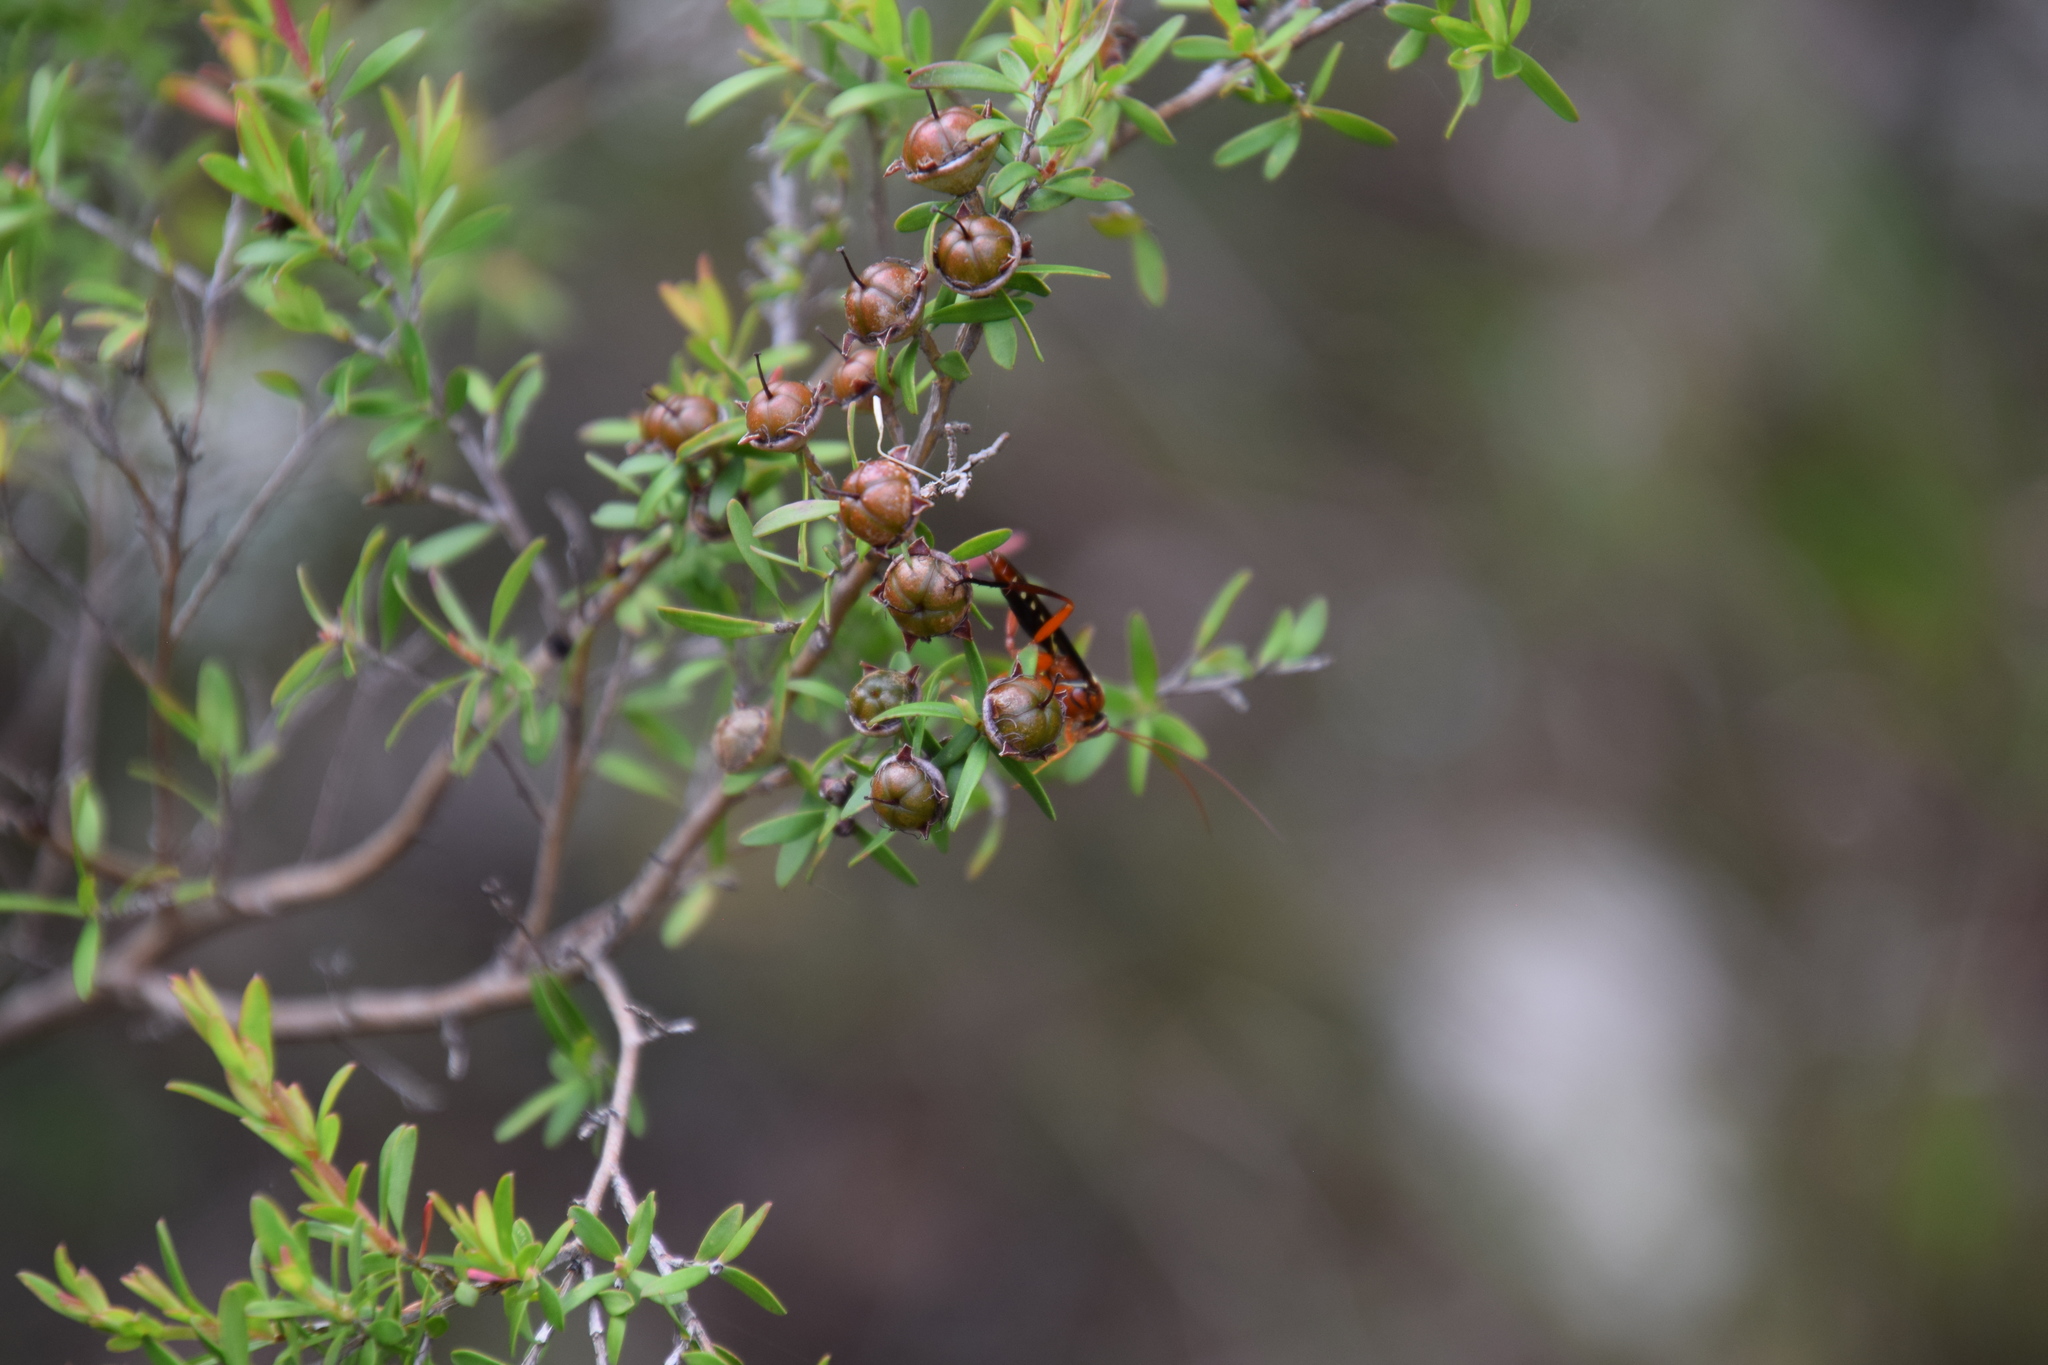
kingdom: Animalia
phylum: Arthropoda
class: Insecta
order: Hymenoptera
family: Ichneumonidae
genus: Lissopimpla
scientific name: Lissopimpla excelsa
